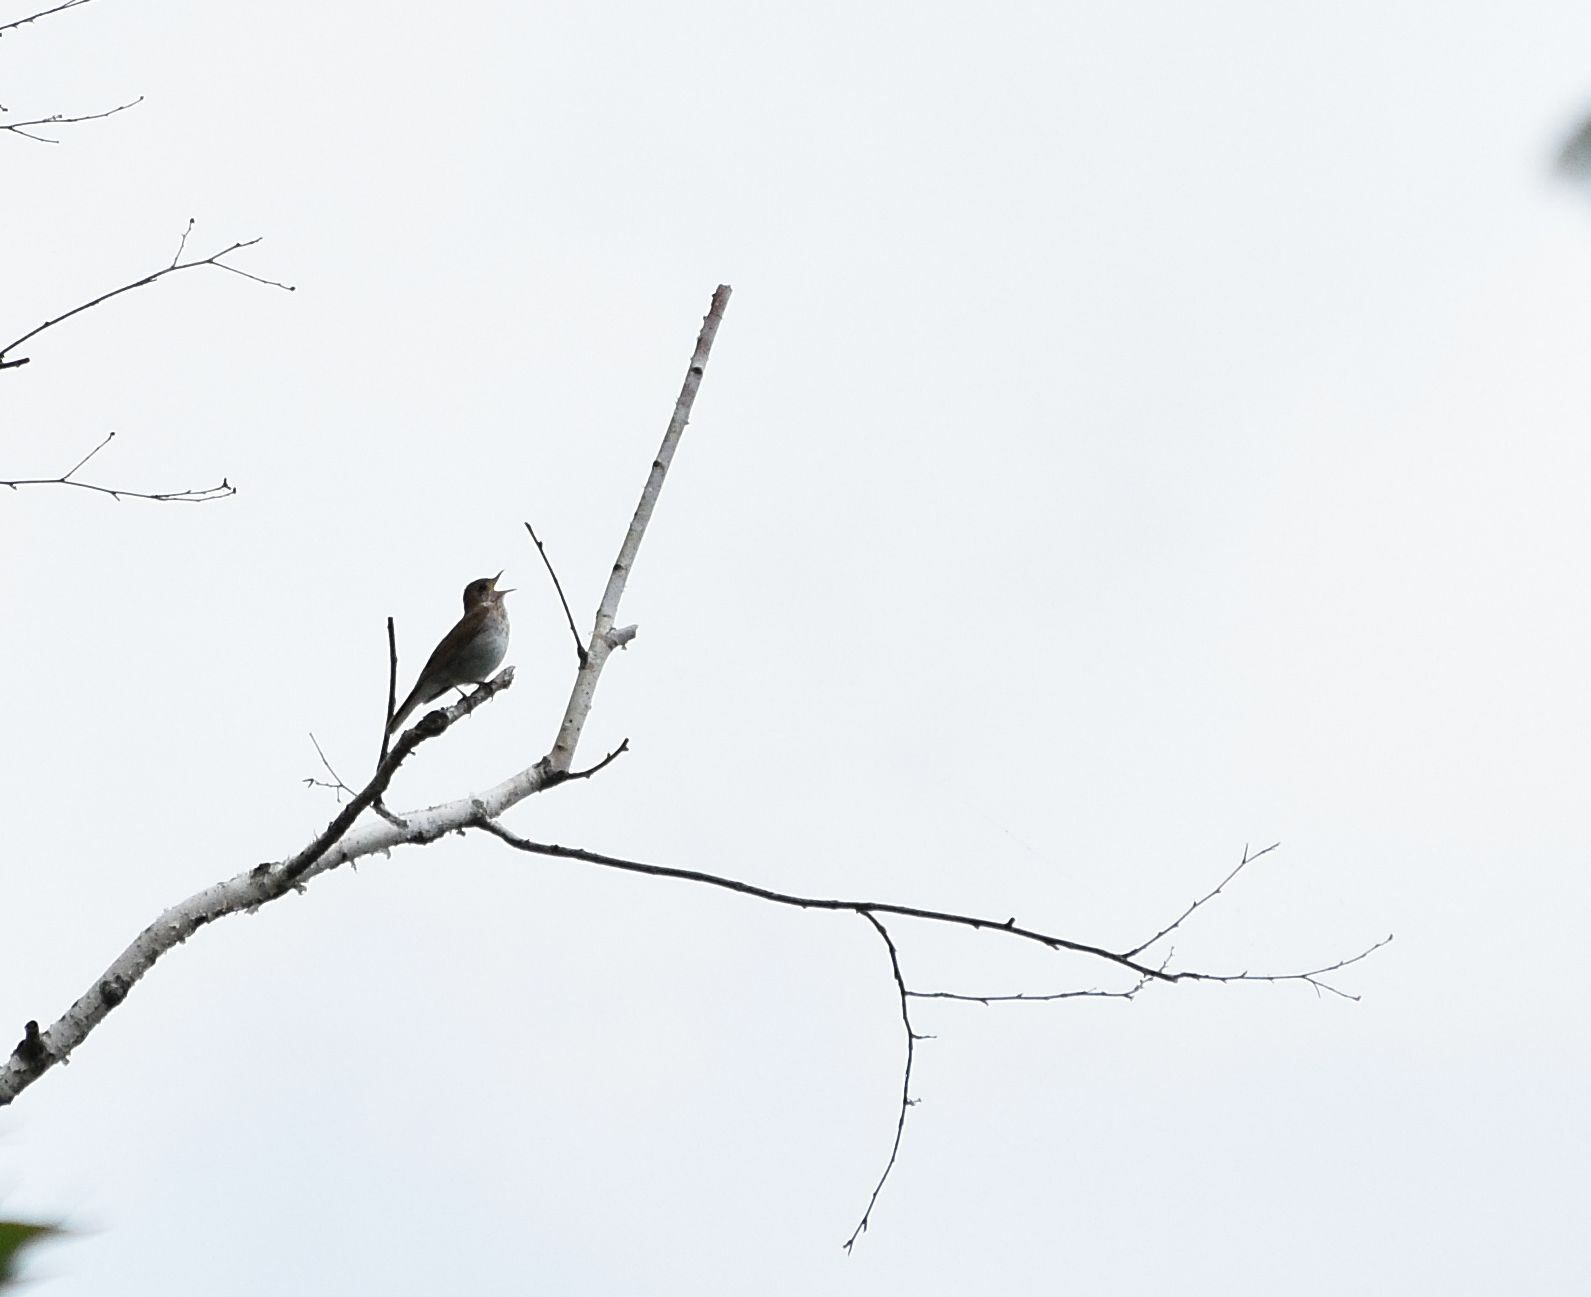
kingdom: Animalia
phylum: Chordata
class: Aves
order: Passeriformes
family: Turdidae
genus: Catharus
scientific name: Catharus fuscescens
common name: Veery
